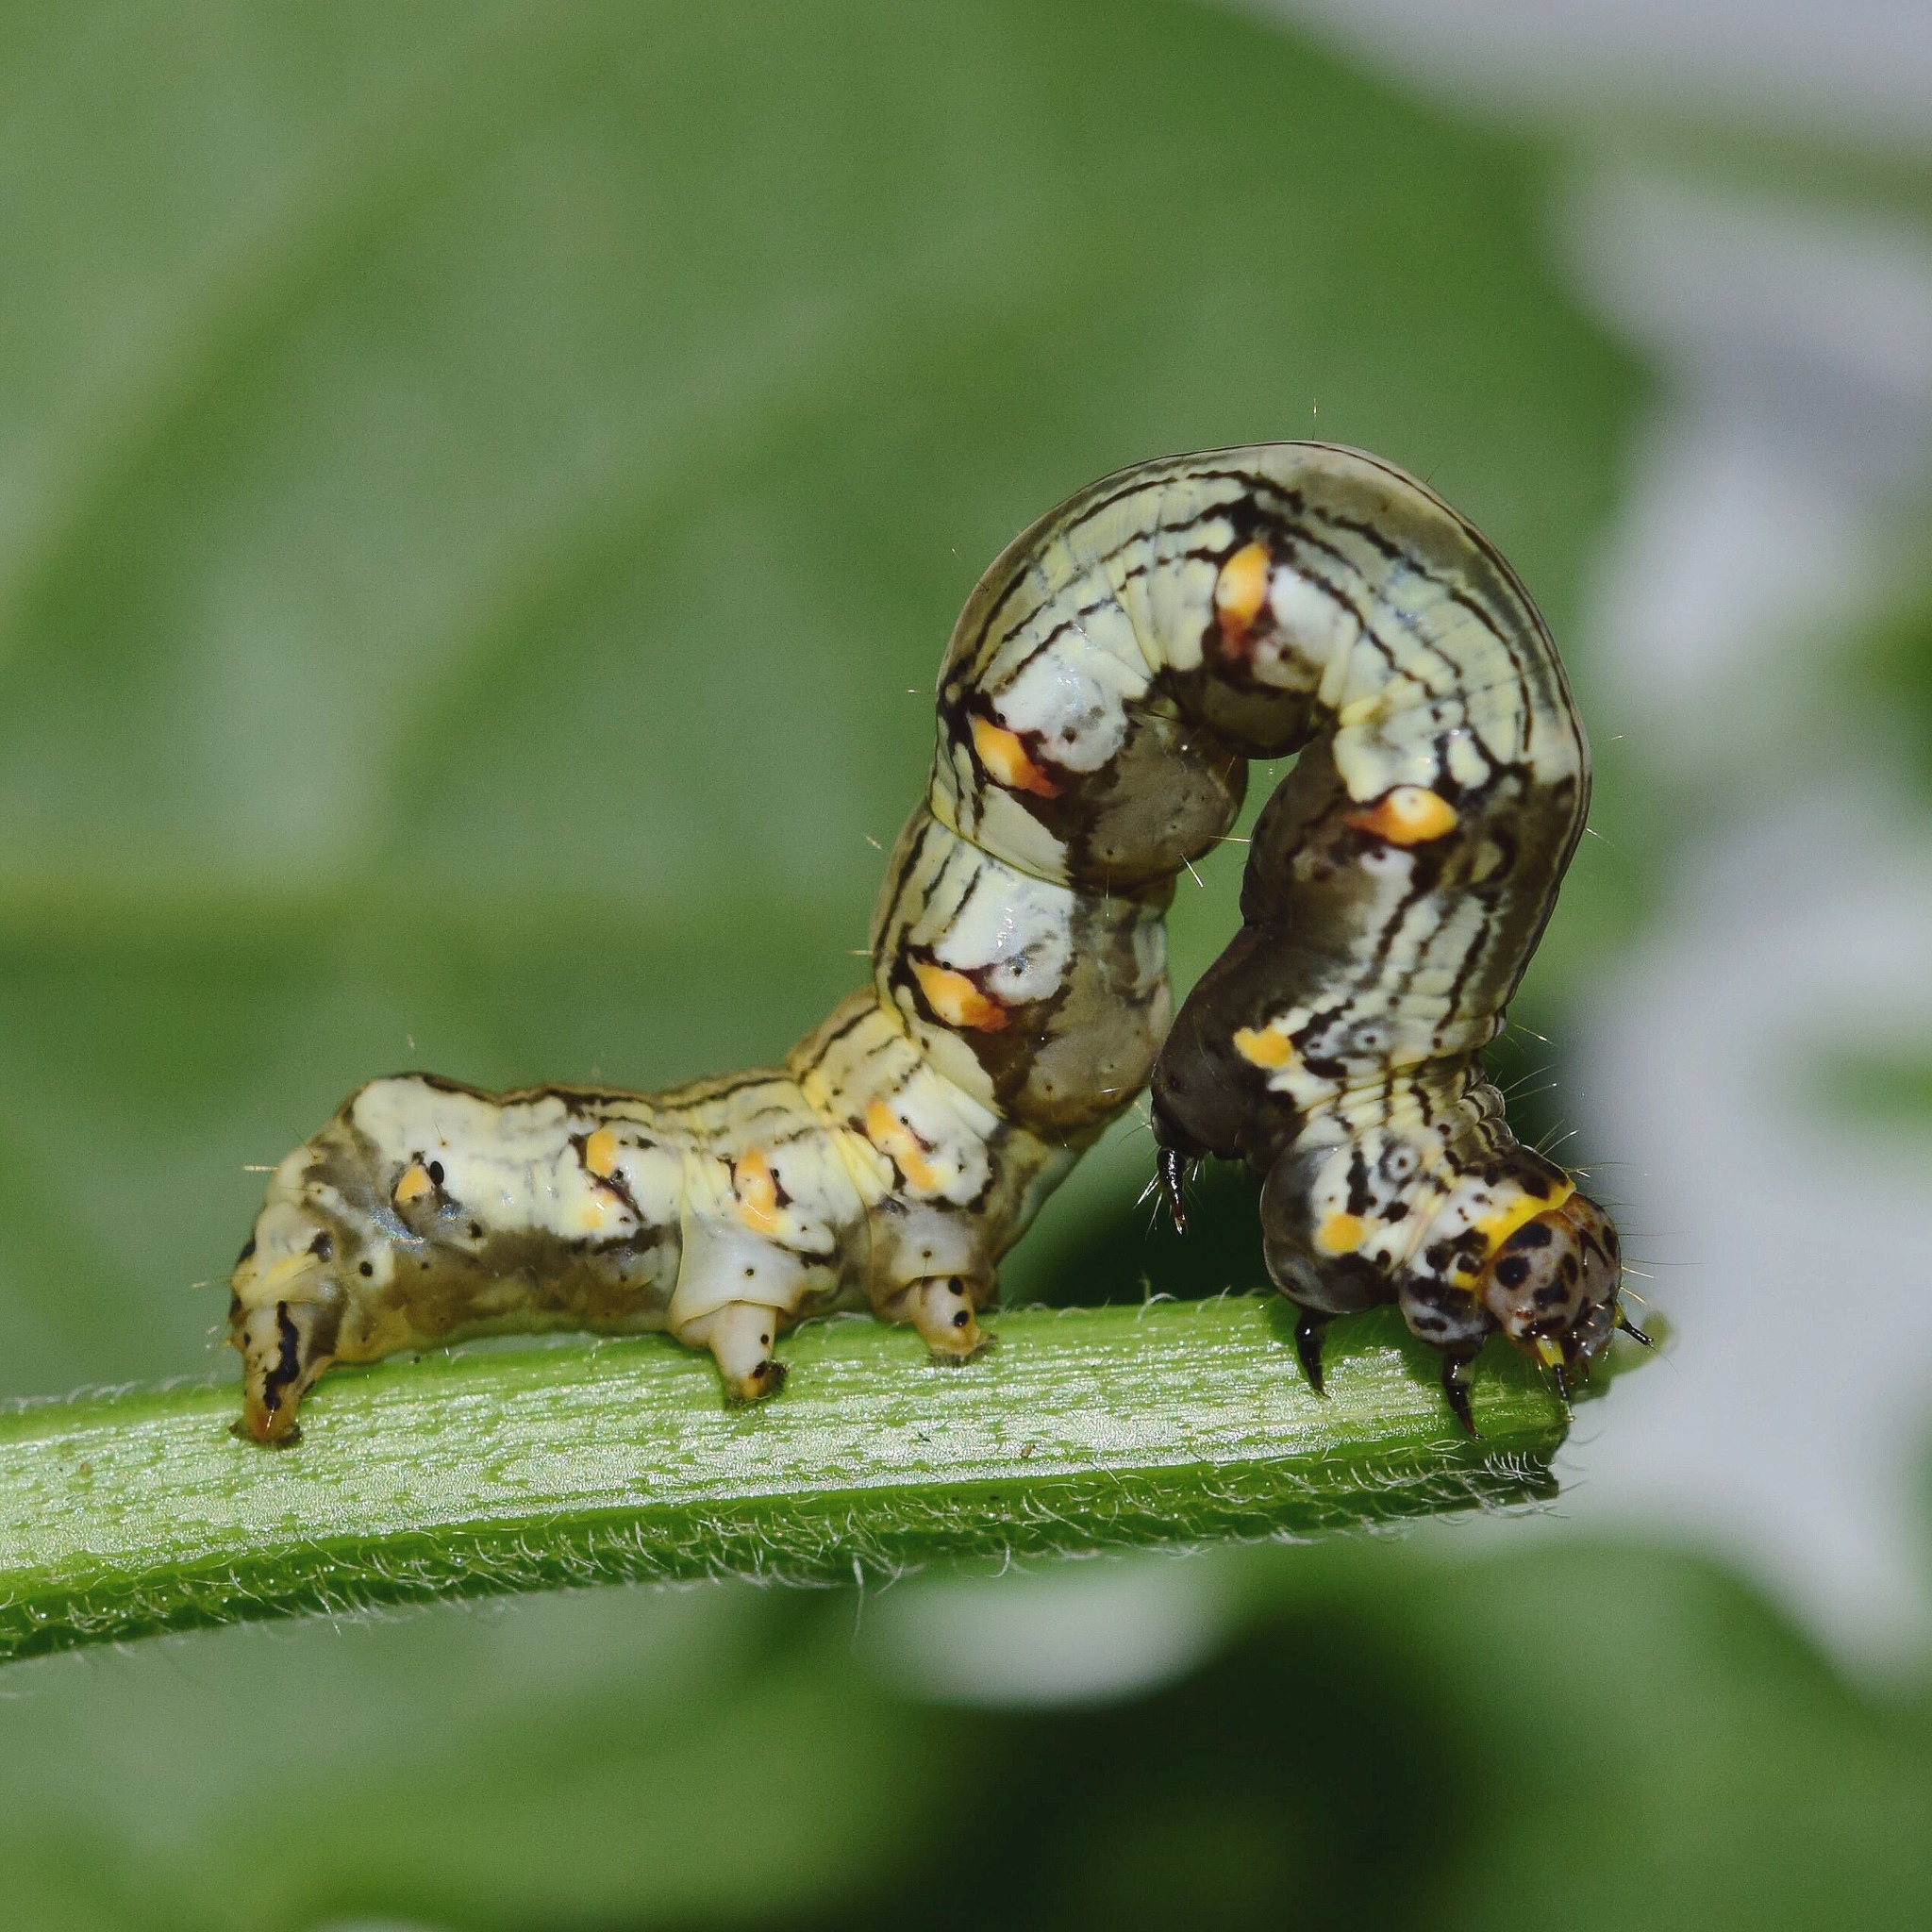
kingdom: Animalia
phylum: Arthropoda
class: Insecta
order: Lepidoptera
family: Noctuidae
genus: Ozarba
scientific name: Ozarba abscissa
